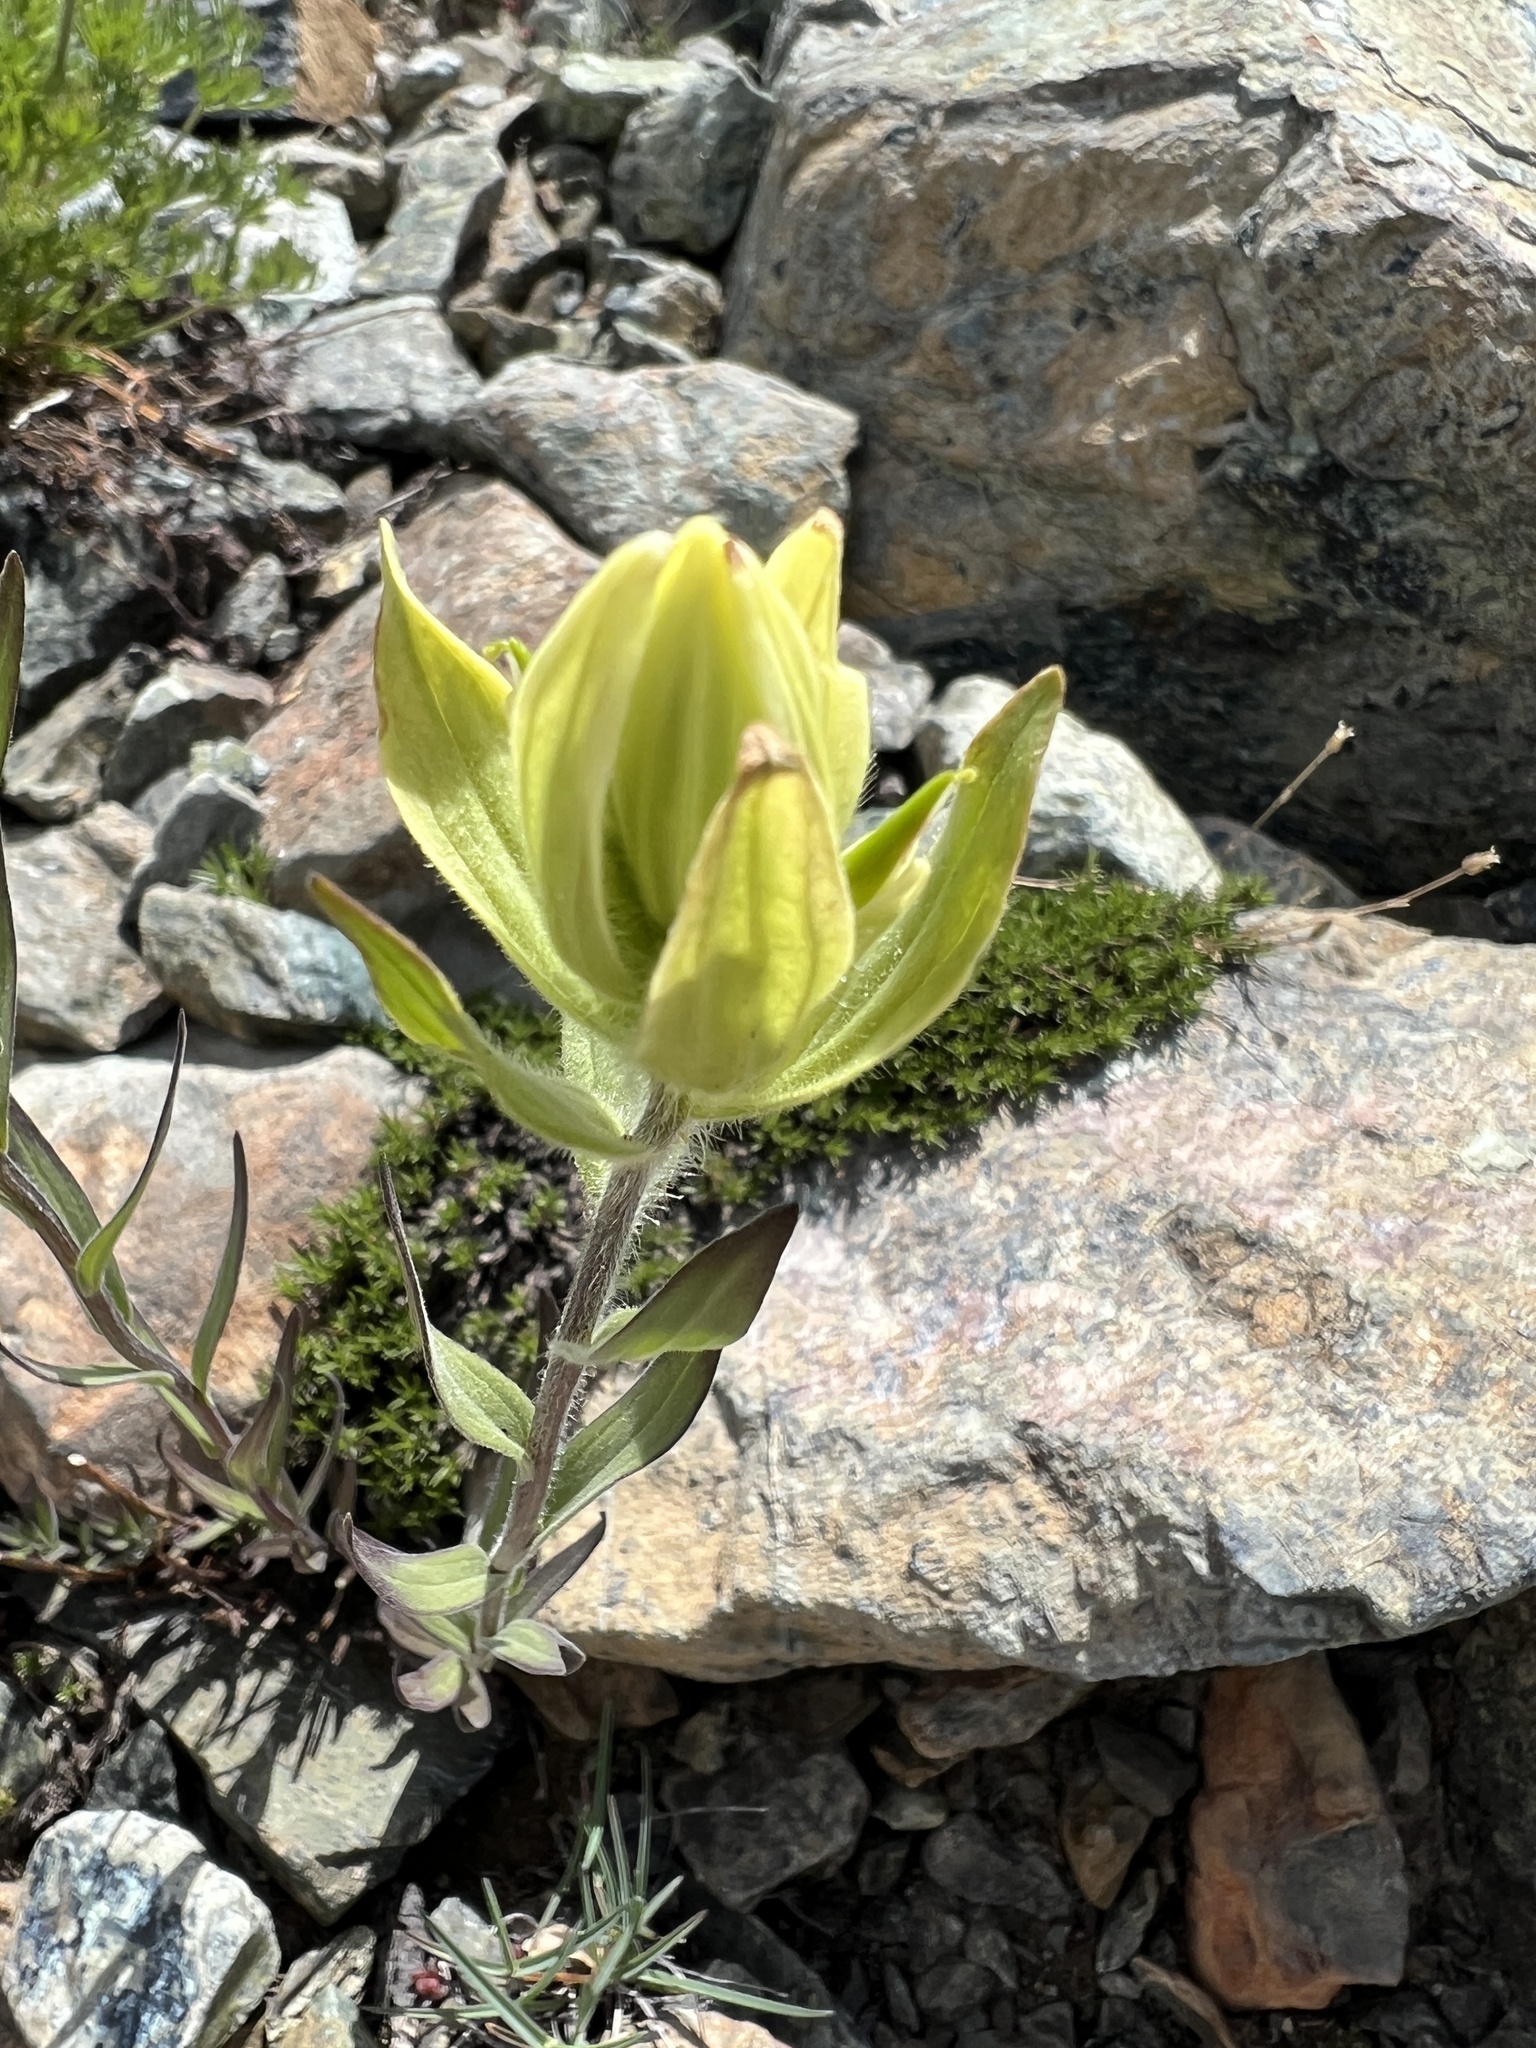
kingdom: Plantae
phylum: Tracheophyta
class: Magnoliopsida
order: Lamiales
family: Orobanchaceae
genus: Castilleja
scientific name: Castilleja elmeri
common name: Elmer's paintbrush
